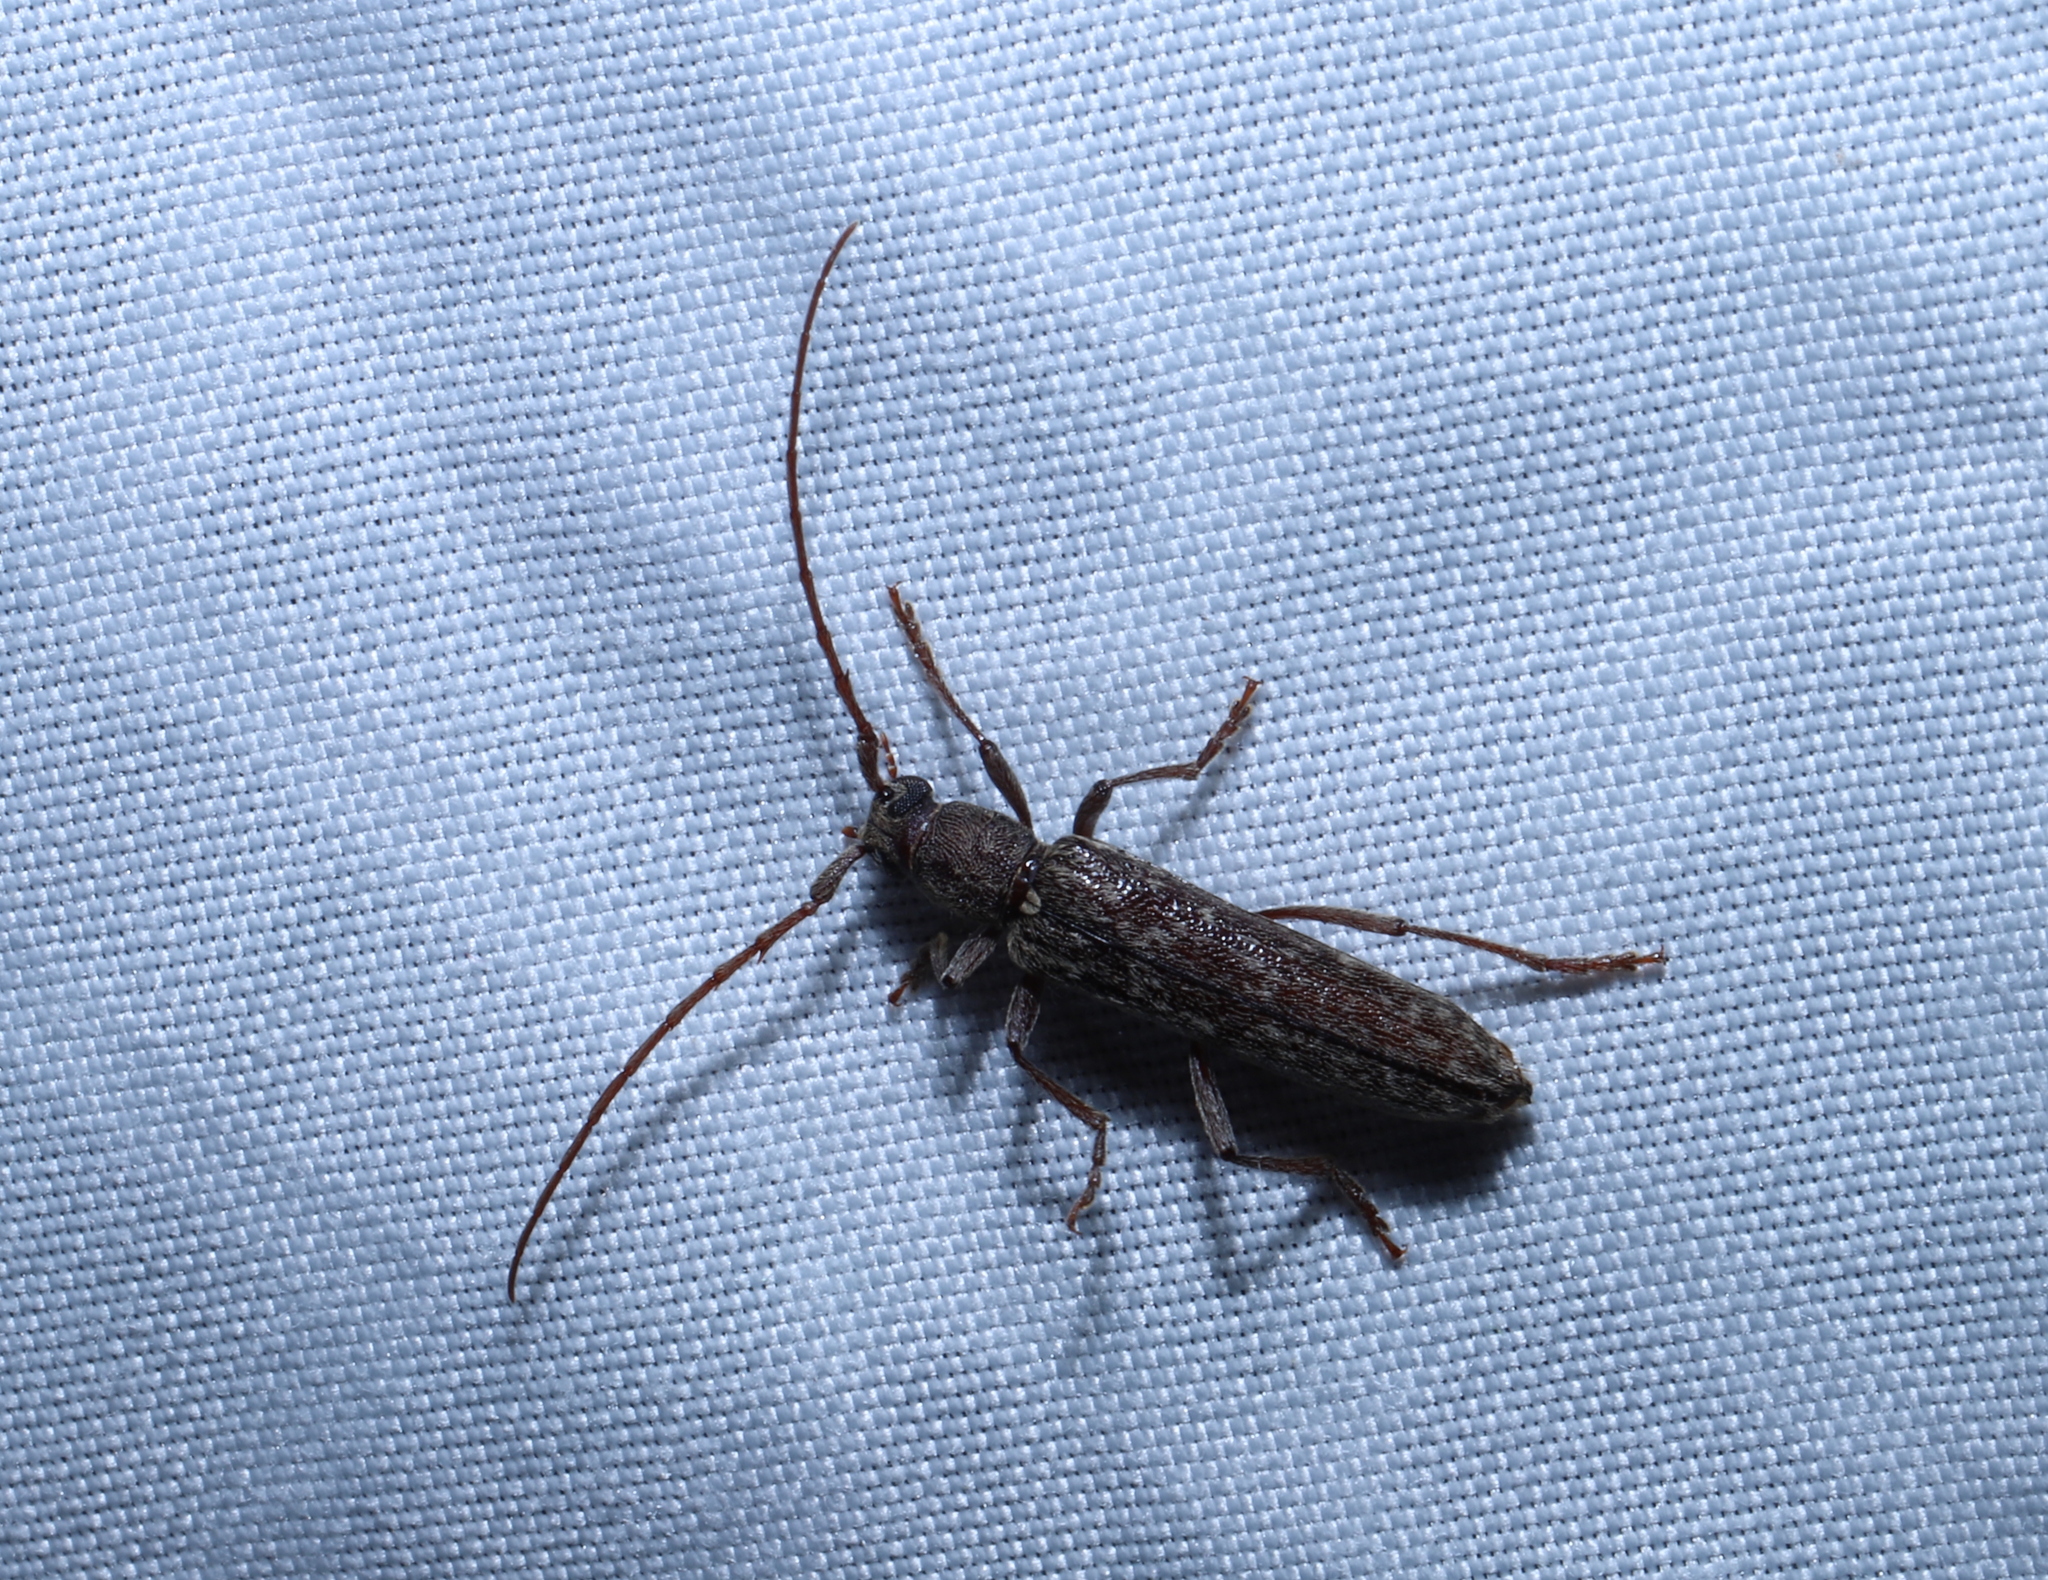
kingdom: Animalia
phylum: Arthropoda
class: Insecta
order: Coleoptera
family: Cerambycidae
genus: Anelaphus
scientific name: Anelaphus villosus
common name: Twig pruner
